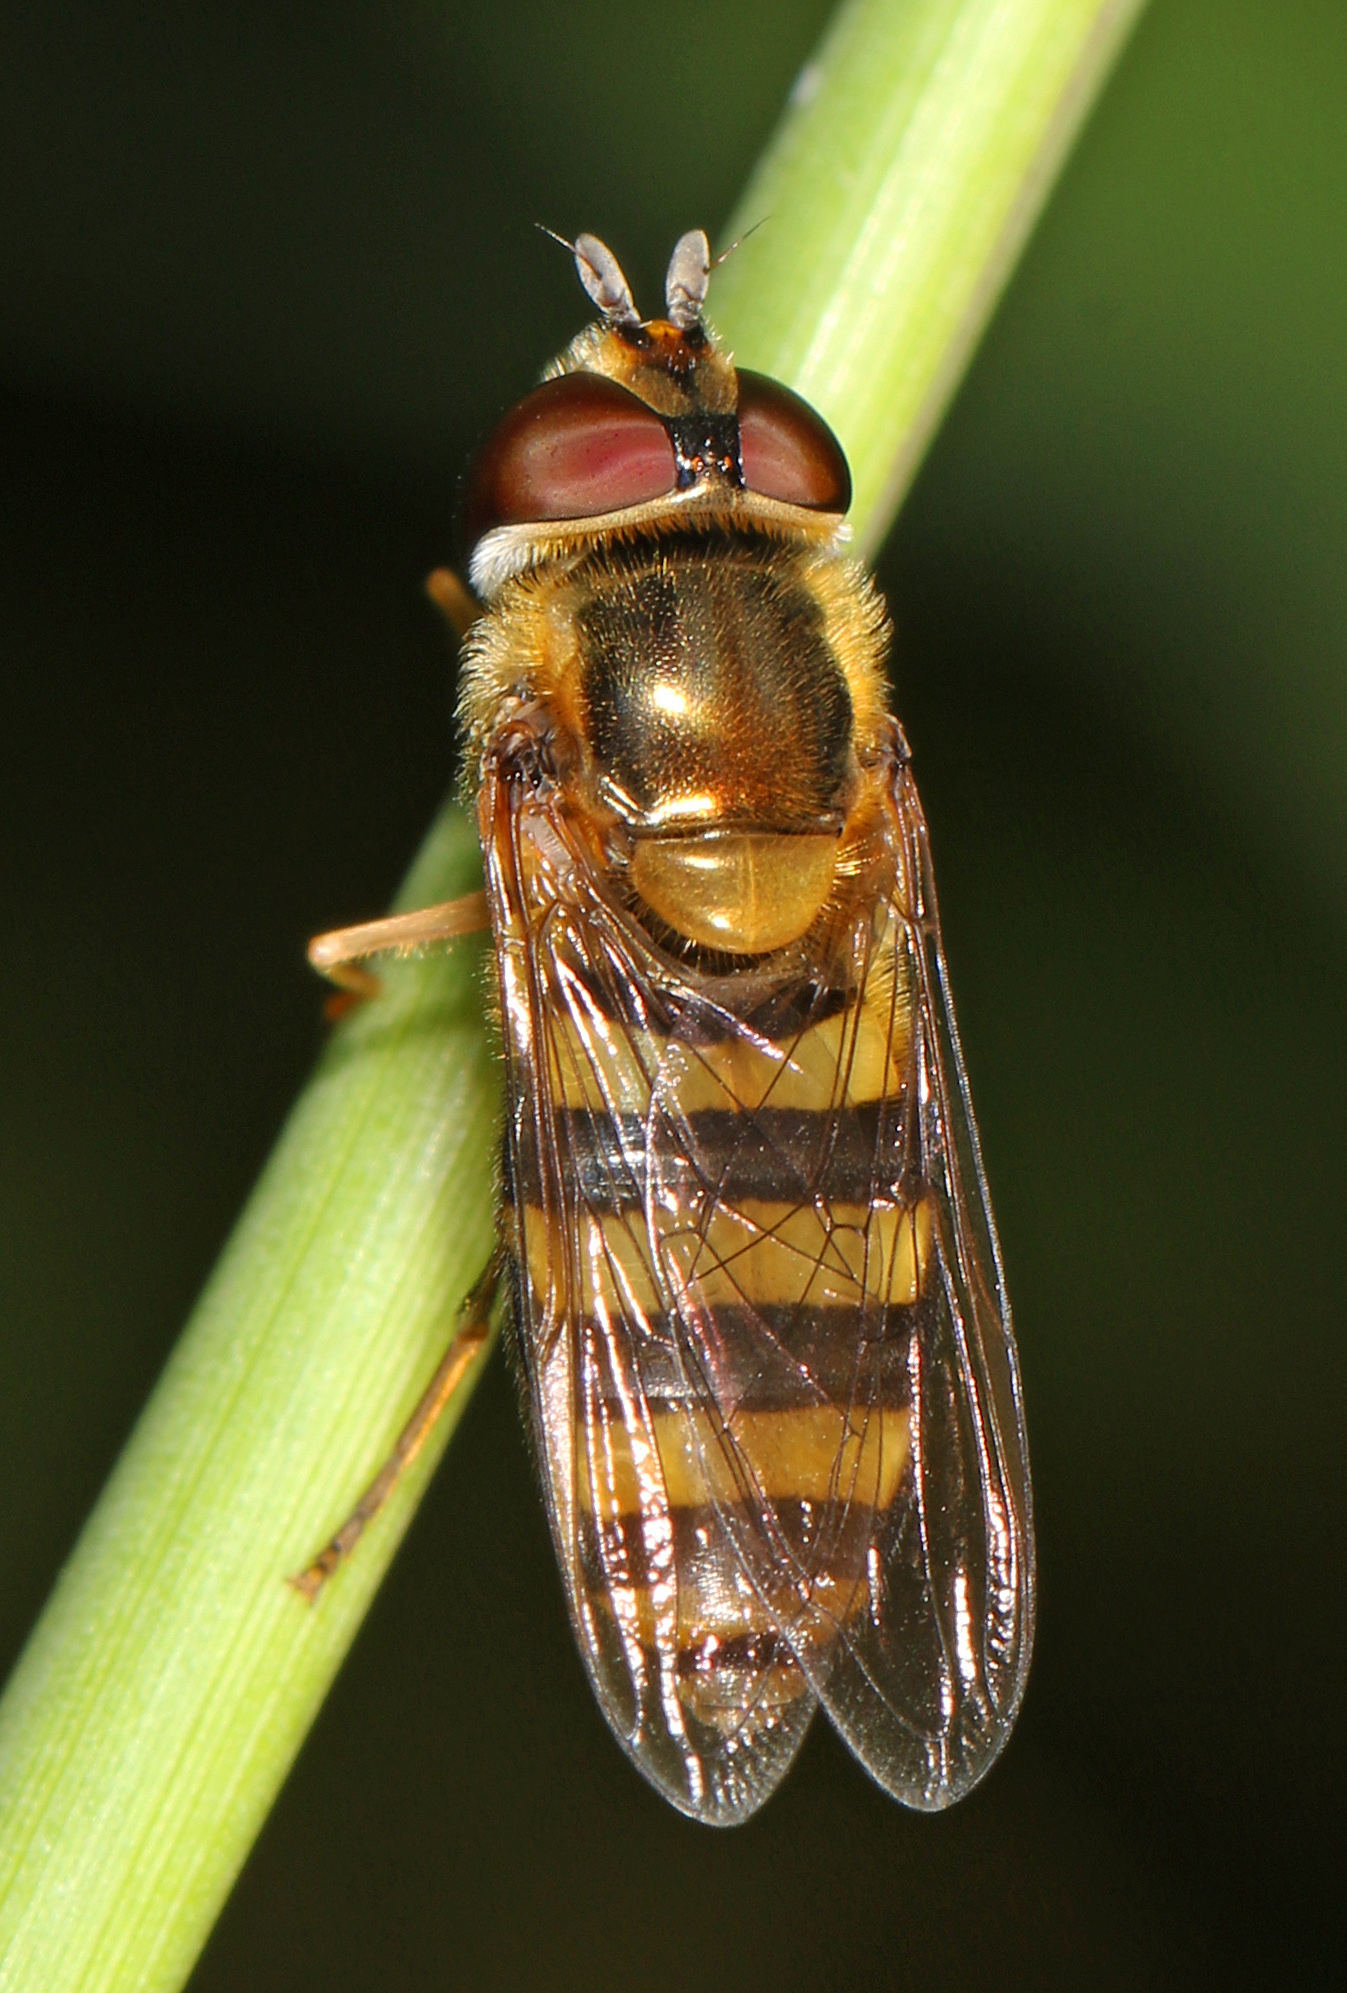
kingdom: Animalia
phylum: Arthropoda
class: Insecta
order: Diptera
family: Syrphidae
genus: Eupeodes
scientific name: Eupeodes
